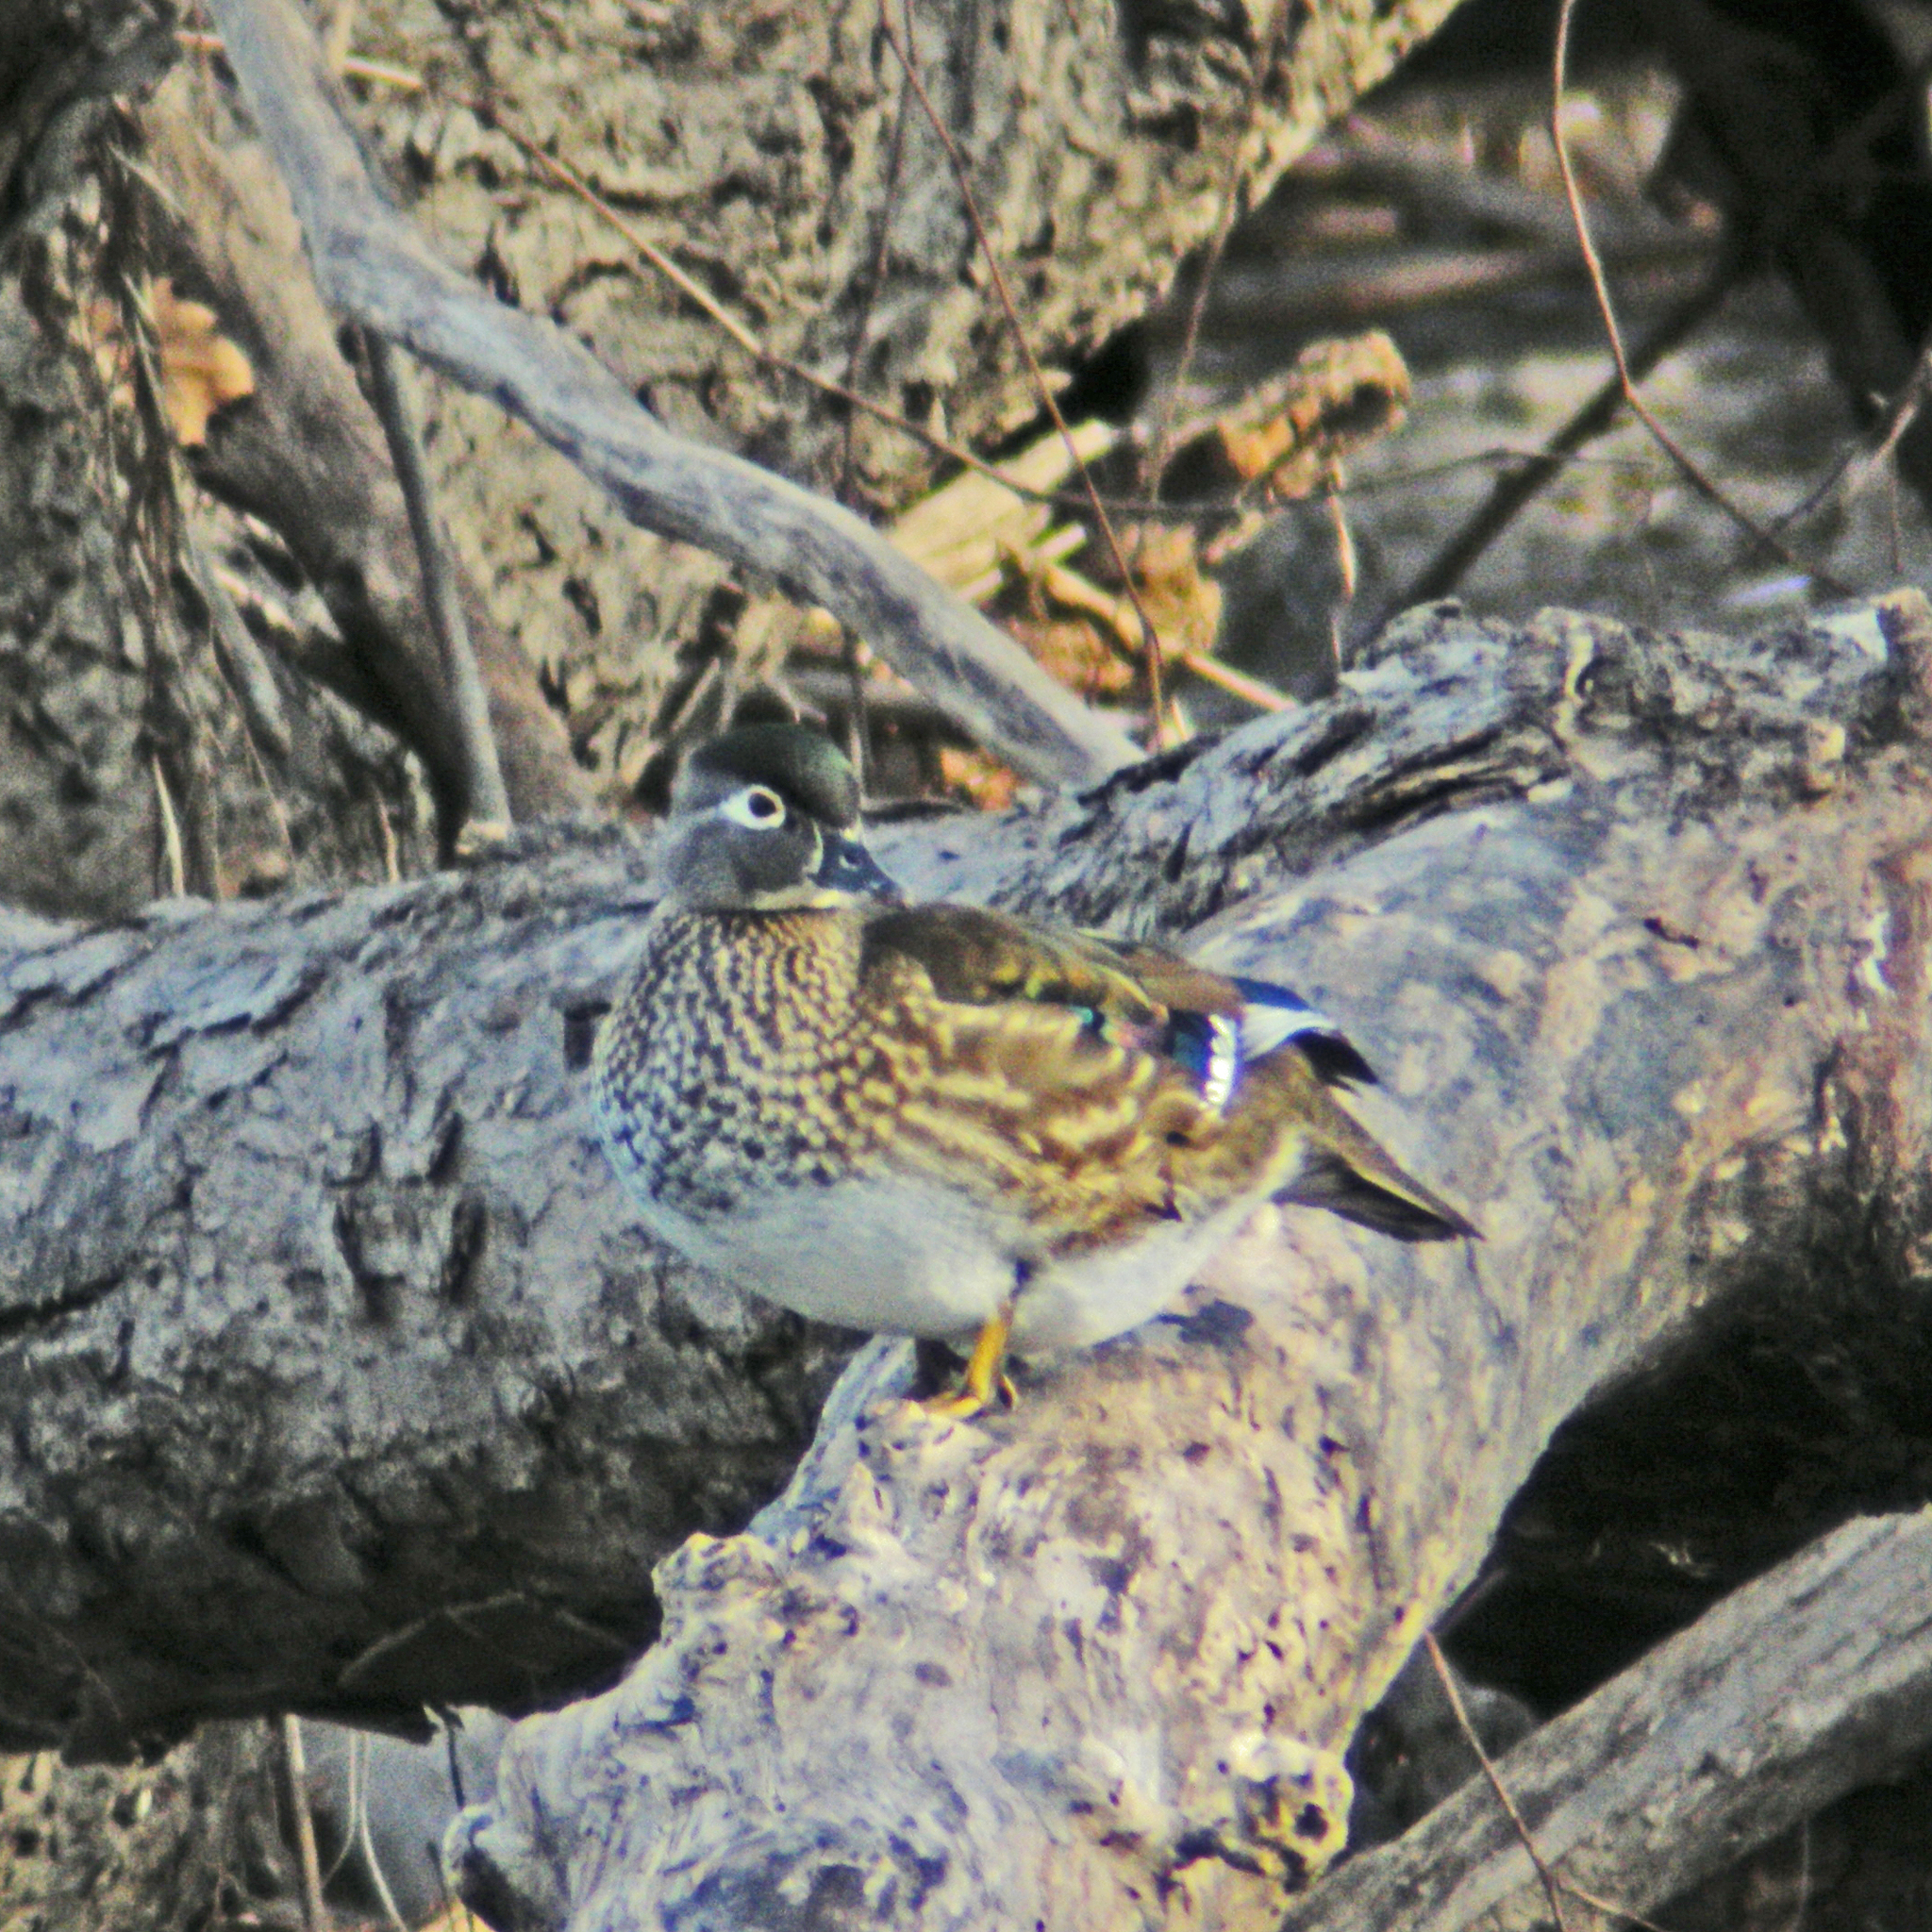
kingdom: Animalia
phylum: Chordata
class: Aves
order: Anseriformes
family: Anatidae
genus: Aix
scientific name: Aix sponsa
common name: Wood duck
